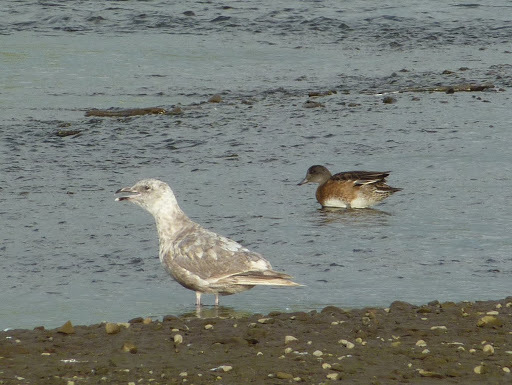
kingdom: Animalia
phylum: Chordata
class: Aves
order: Anseriformes
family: Anatidae
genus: Mareca
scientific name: Mareca americana
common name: American wigeon
